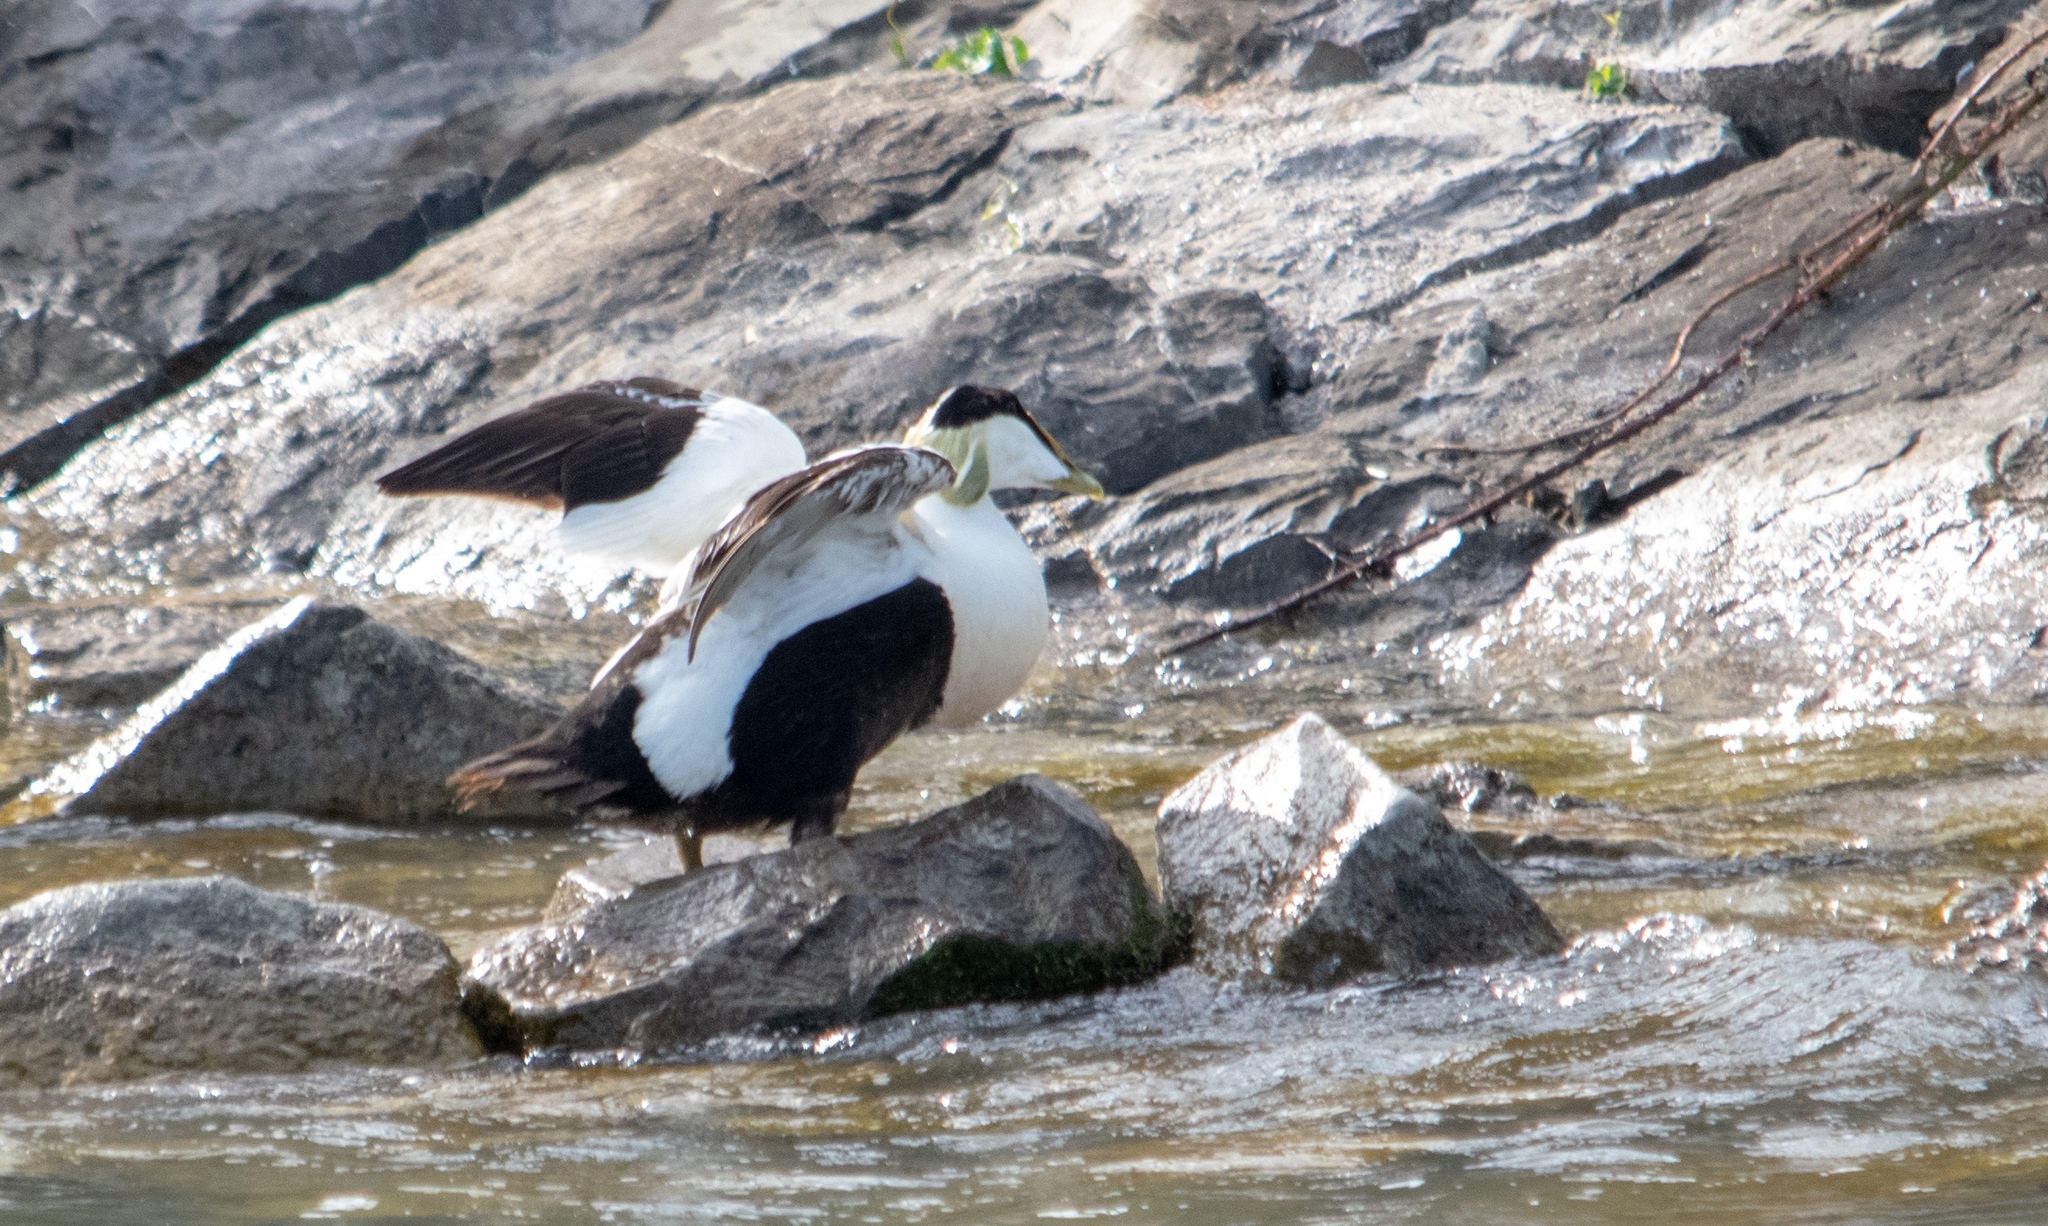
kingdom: Animalia
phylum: Chordata
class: Aves
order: Anseriformes
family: Anatidae
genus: Somateria
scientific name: Somateria mollissima
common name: Common eider
